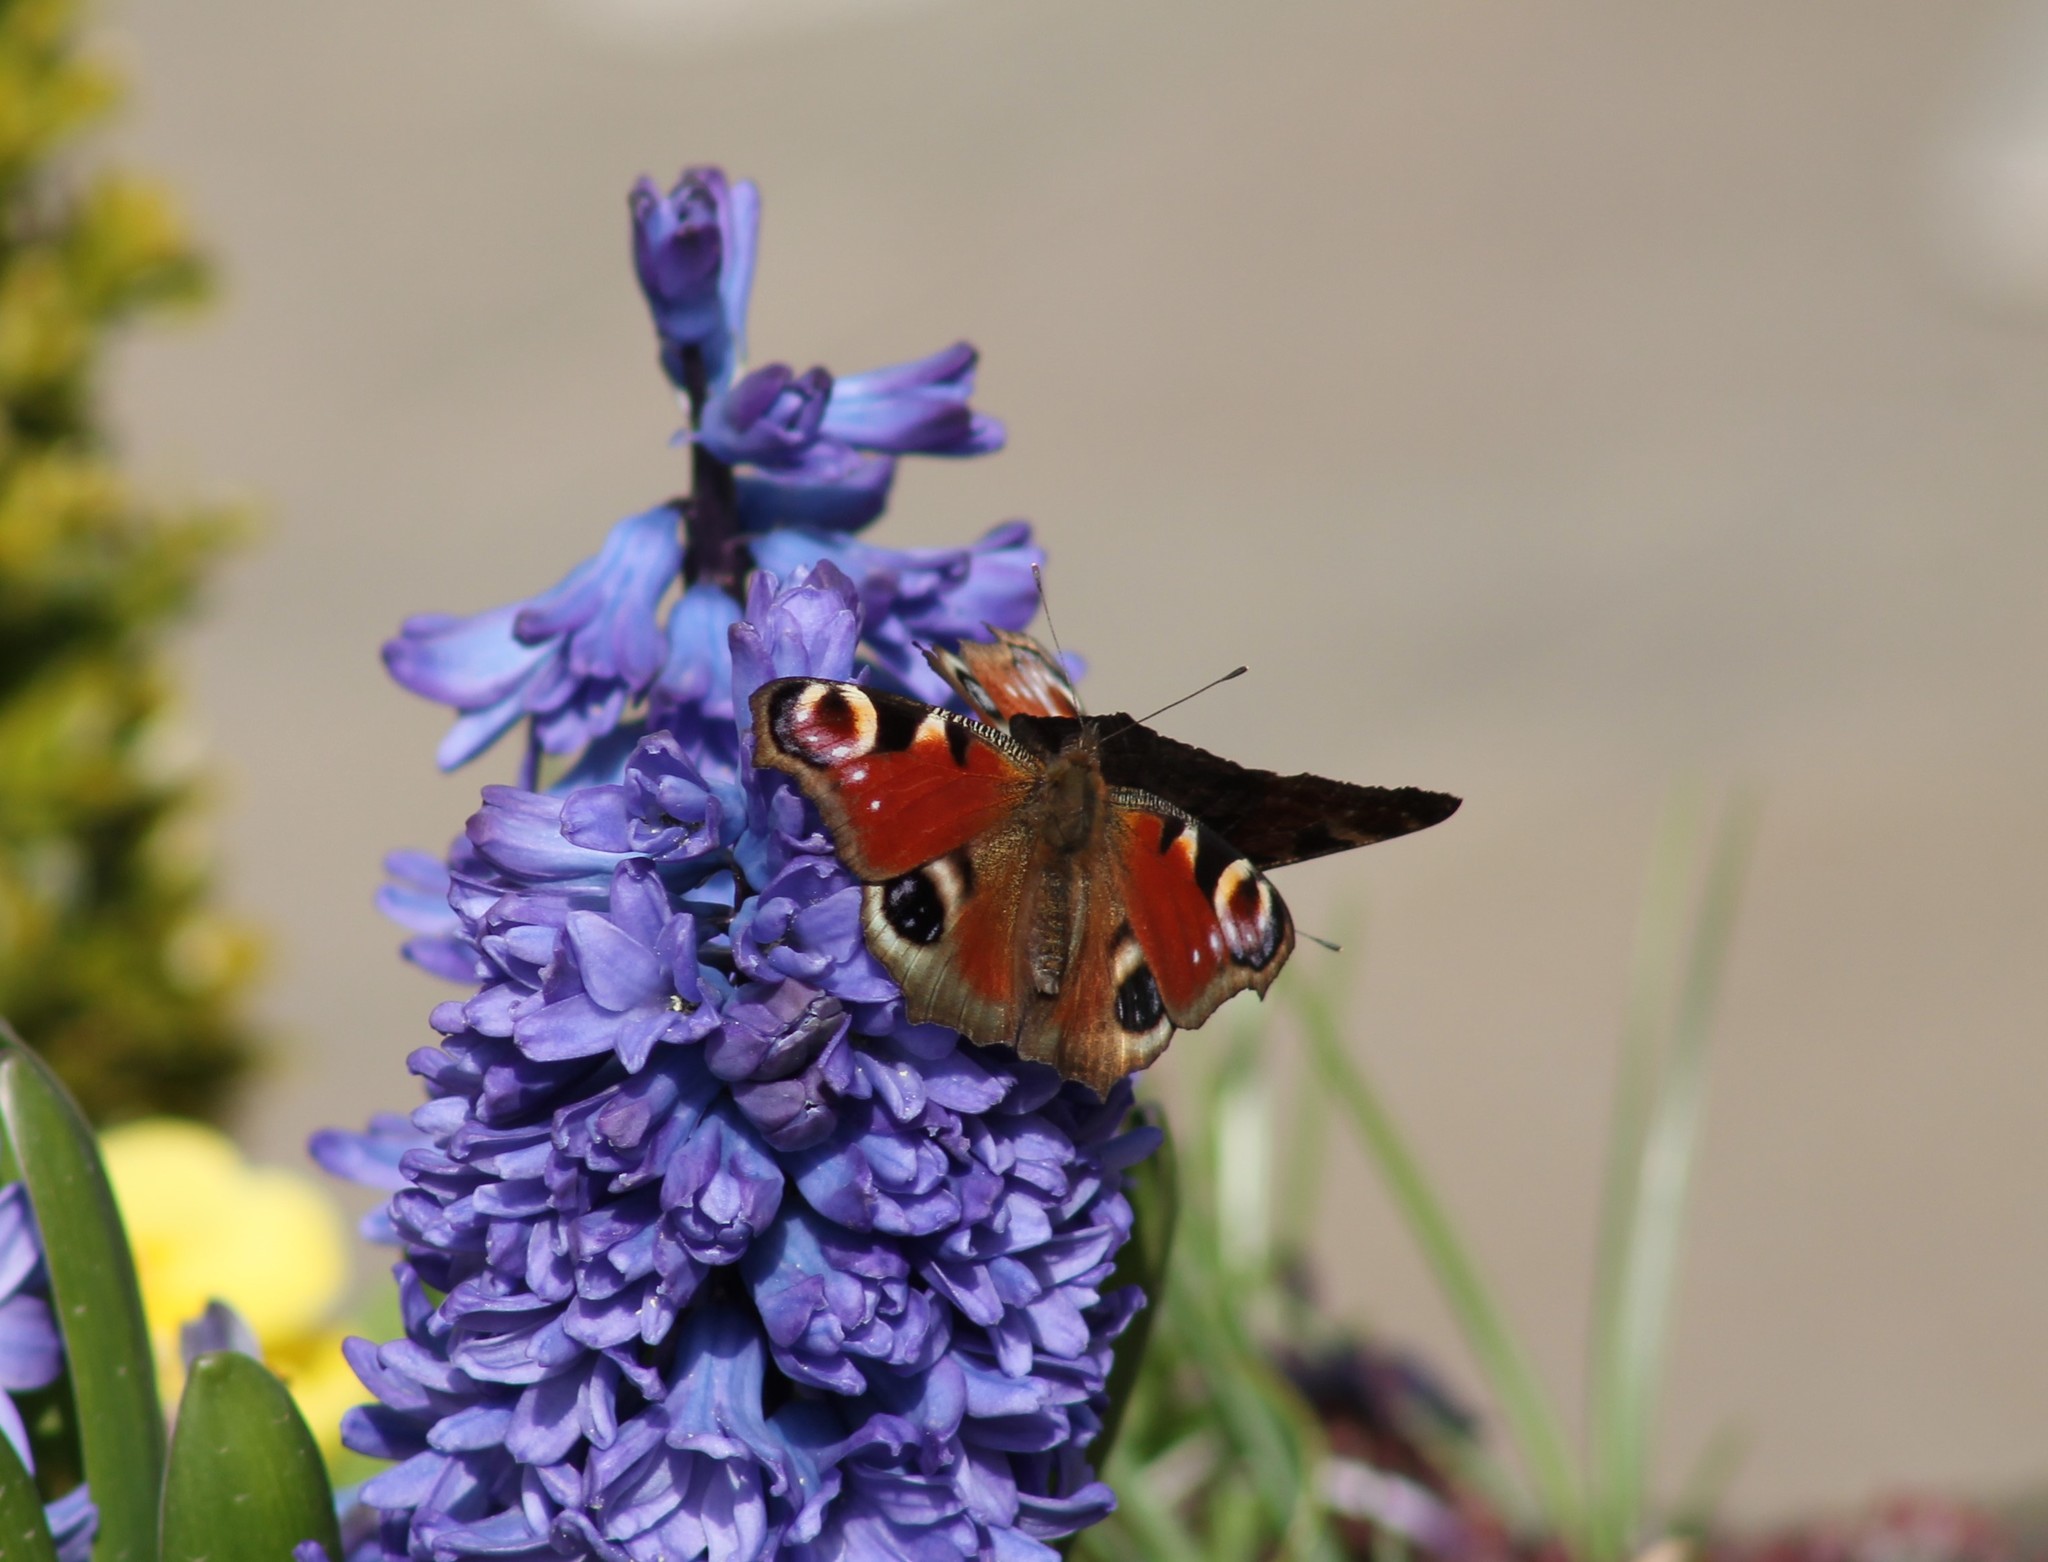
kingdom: Animalia
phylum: Arthropoda
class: Insecta
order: Lepidoptera
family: Nymphalidae
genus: Aglais
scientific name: Aglais io
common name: Peacock
